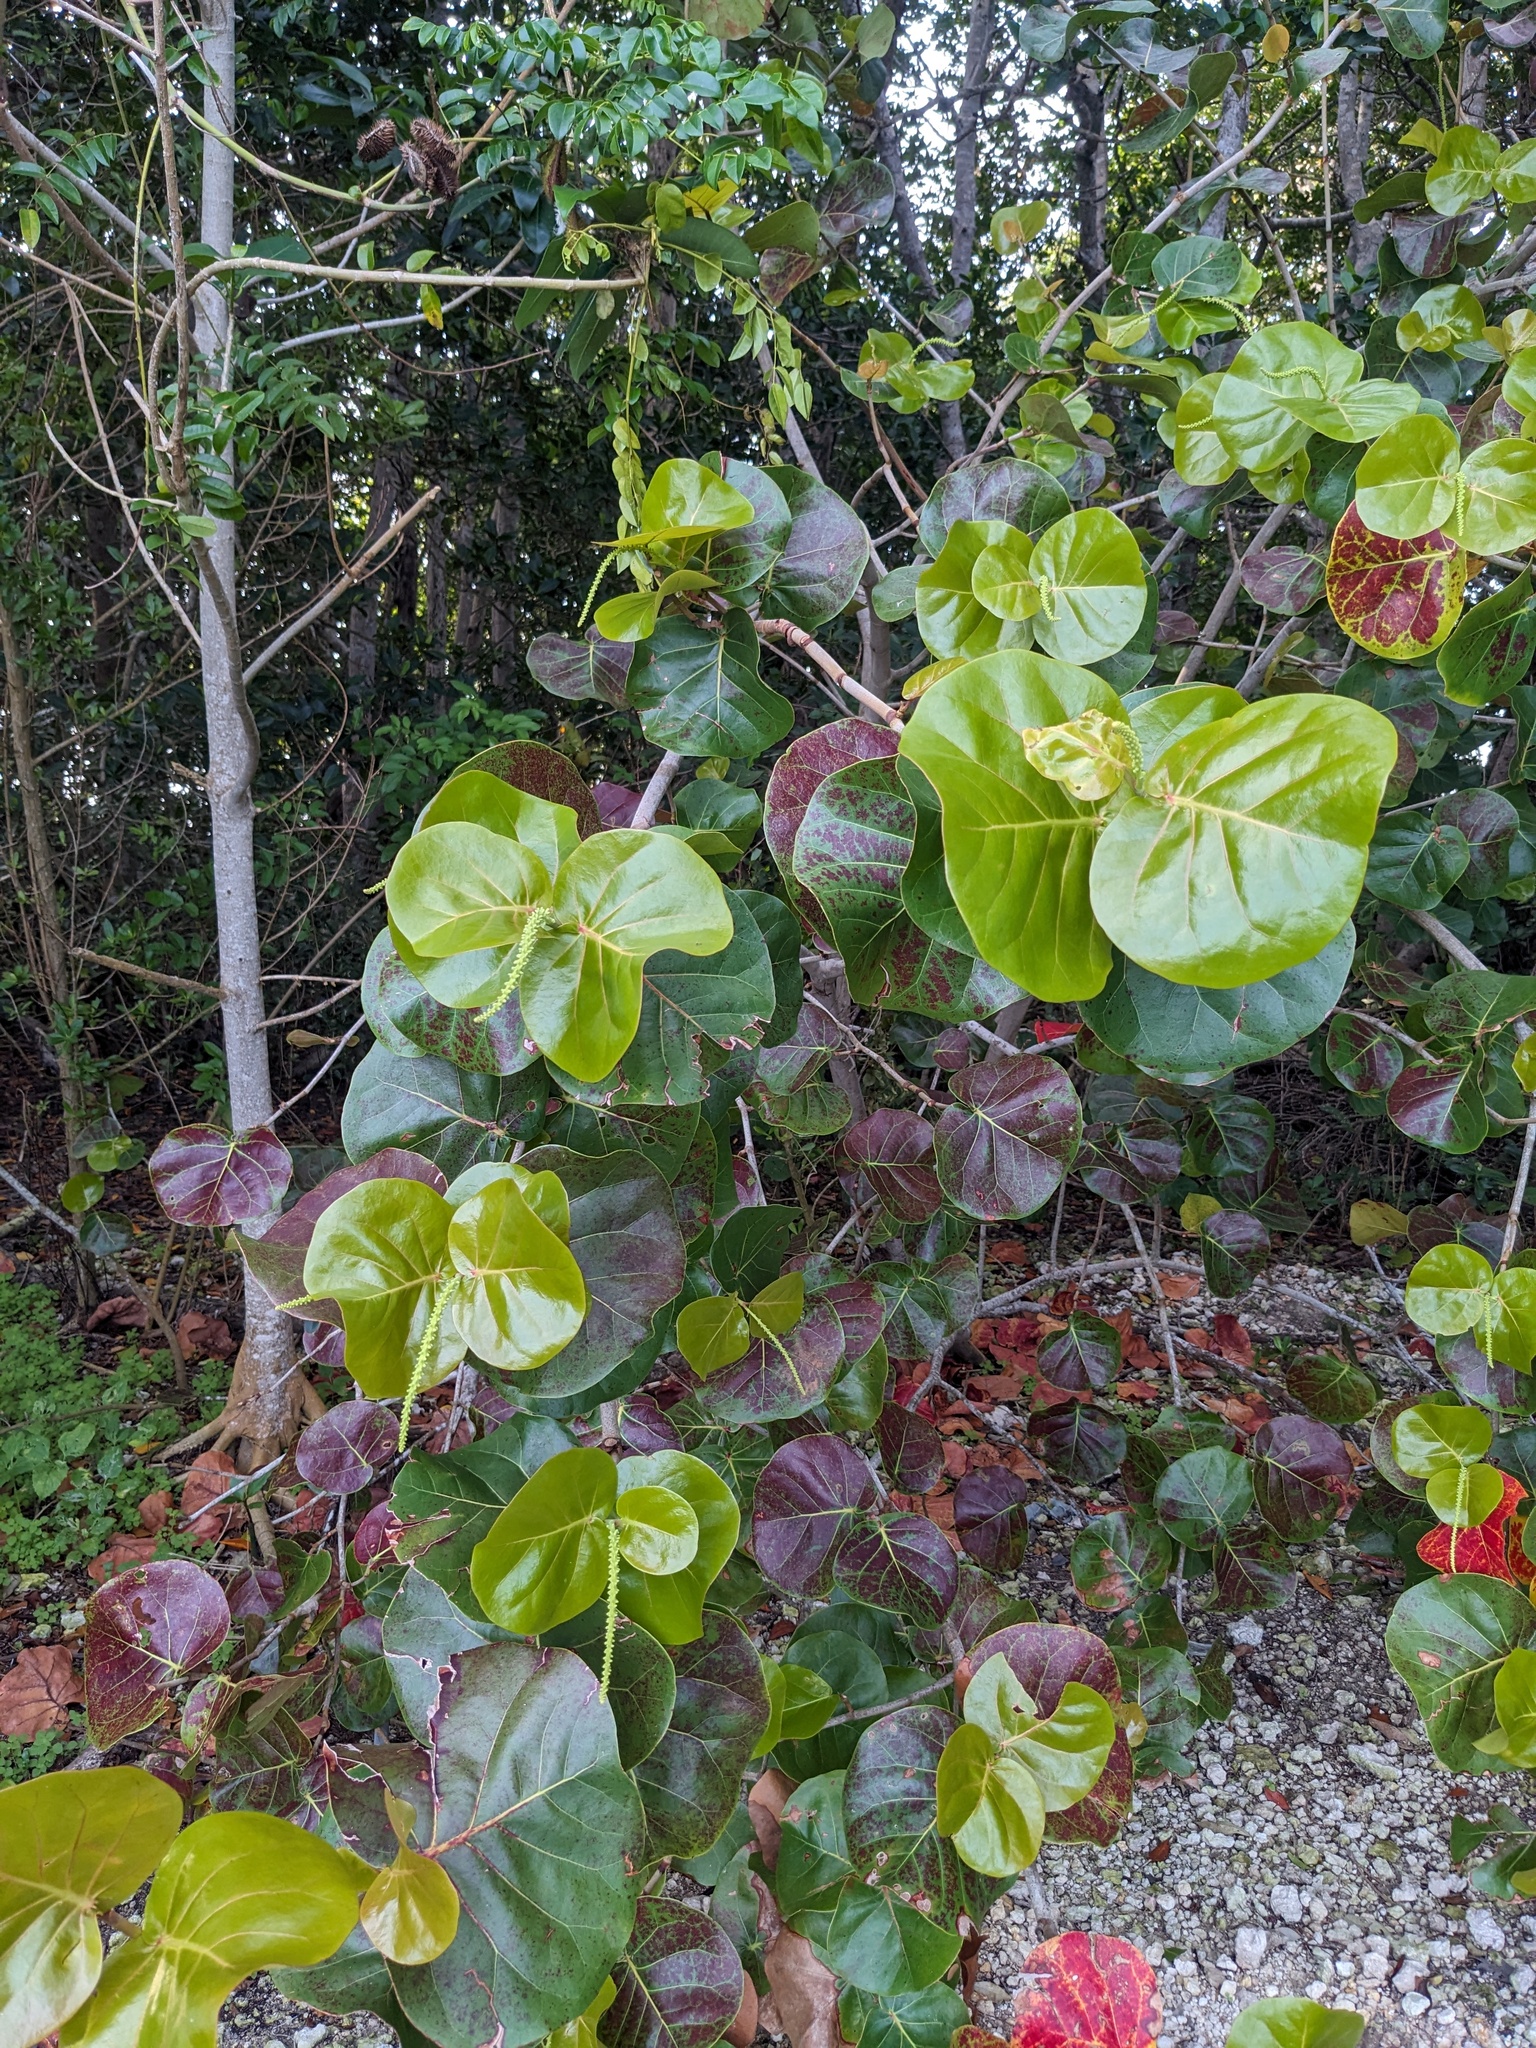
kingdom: Plantae
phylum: Tracheophyta
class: Magnoliopsida
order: Caryophyllales
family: Polygonaceae
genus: Coccoloba
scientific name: Coccoloba uvifera
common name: Seagrape
